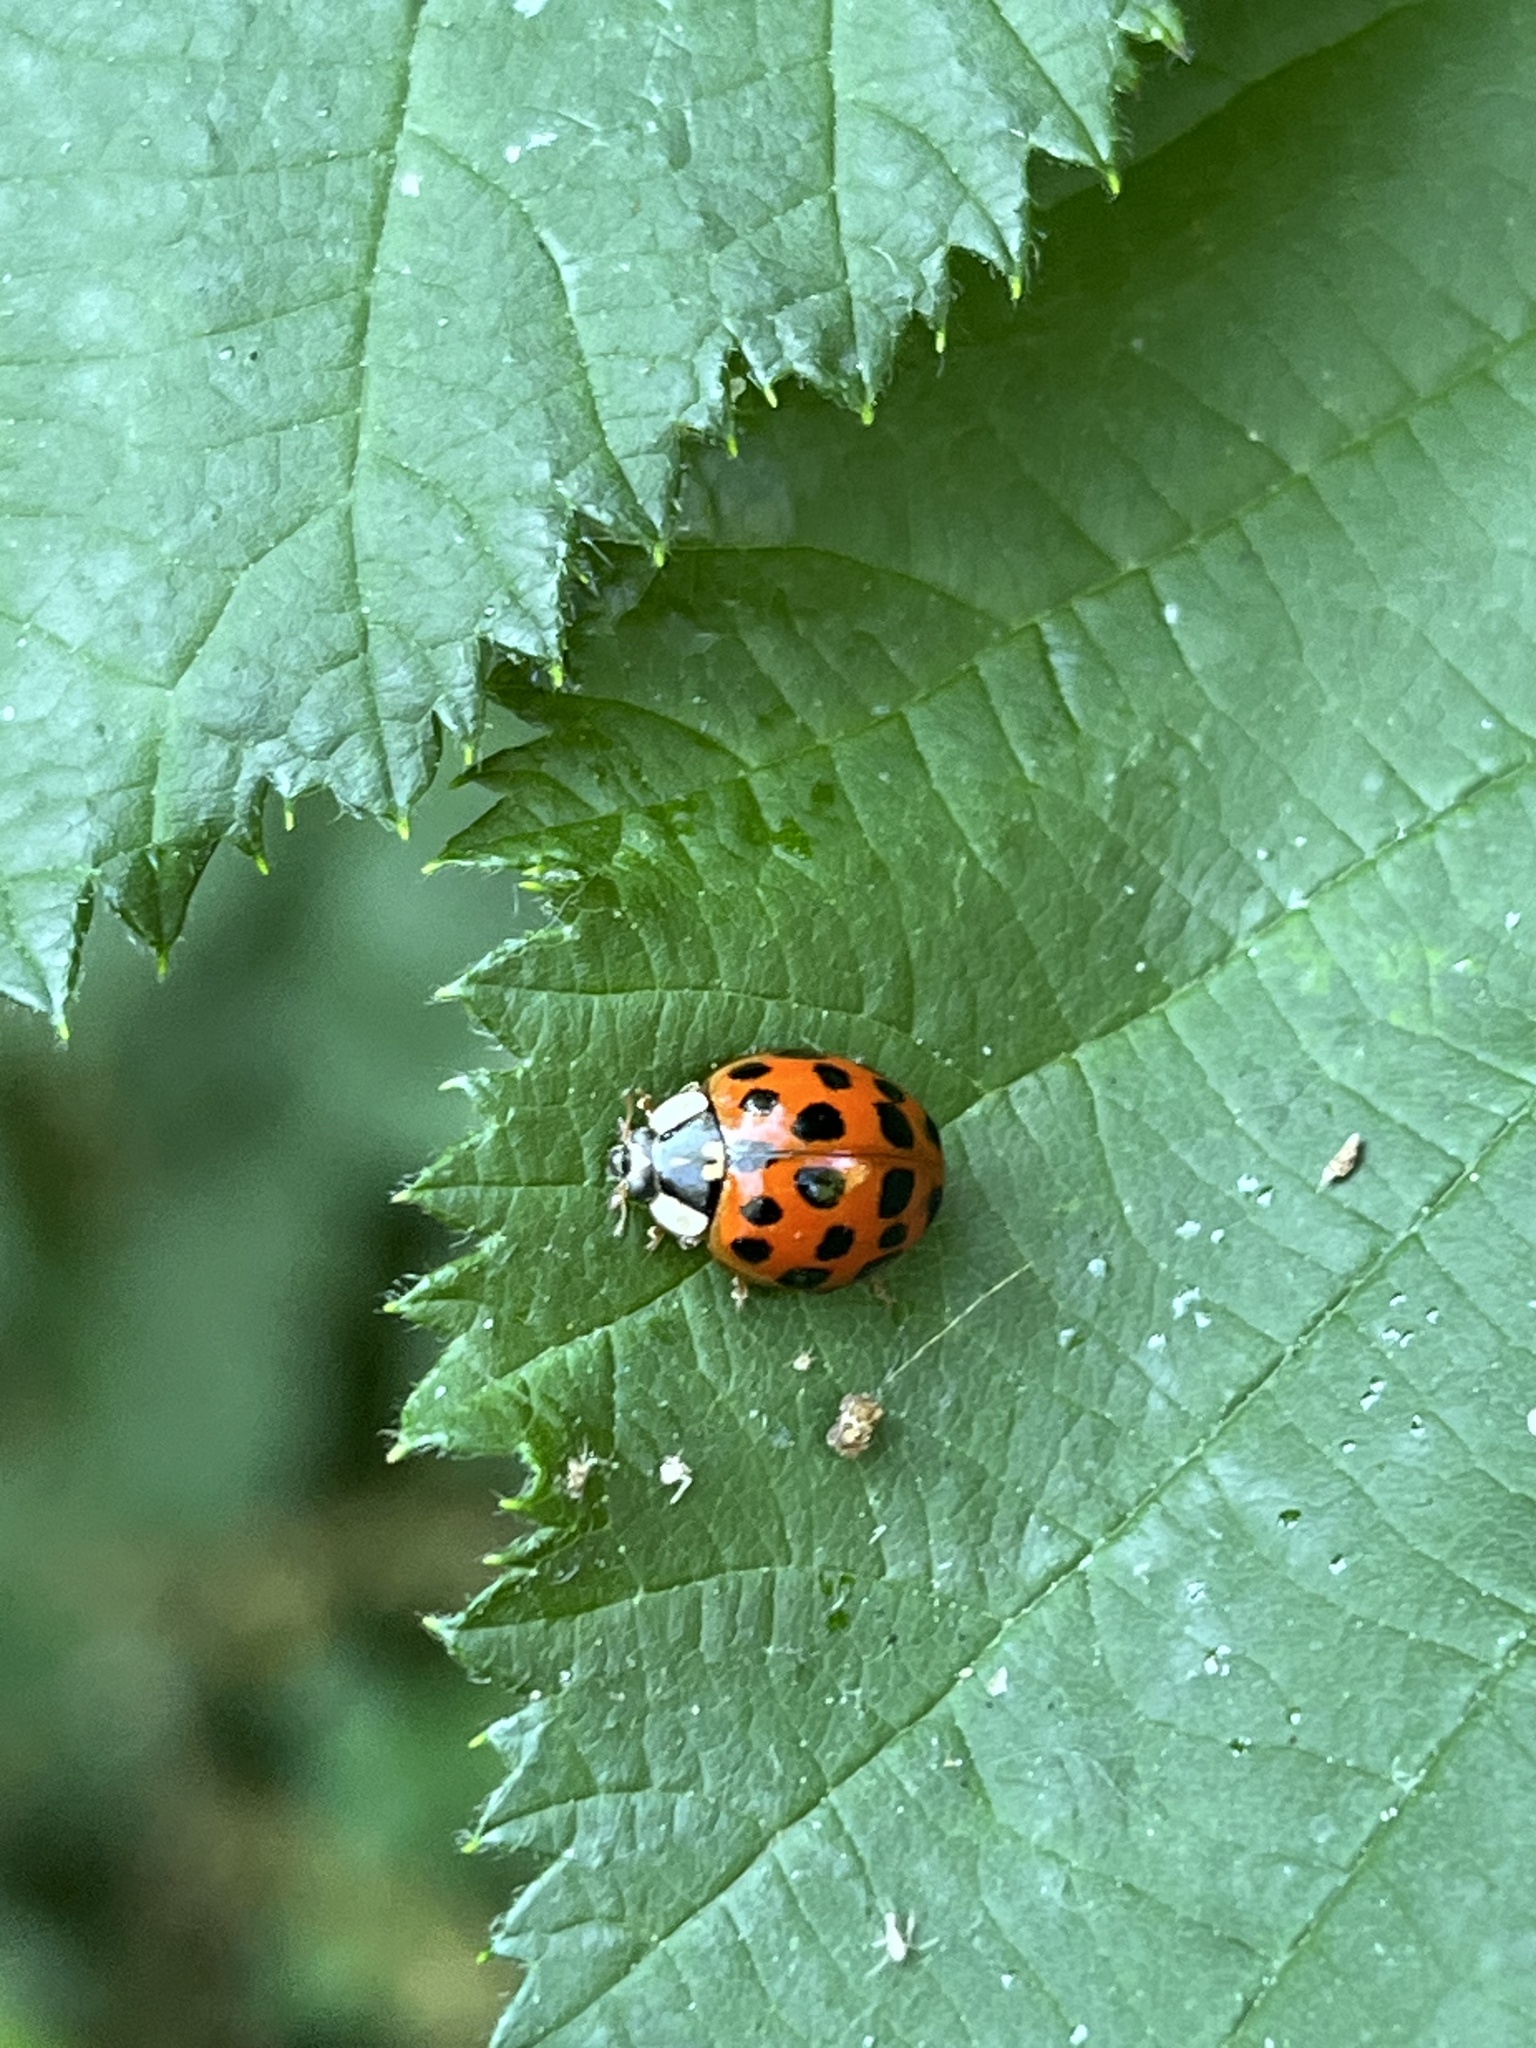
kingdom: Animalia
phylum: Arthropoda
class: Insecta
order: Coleoptera
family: Coccinellidae
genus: Harmonia
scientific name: Harmonia axyridis
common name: Harlequin ladybird
